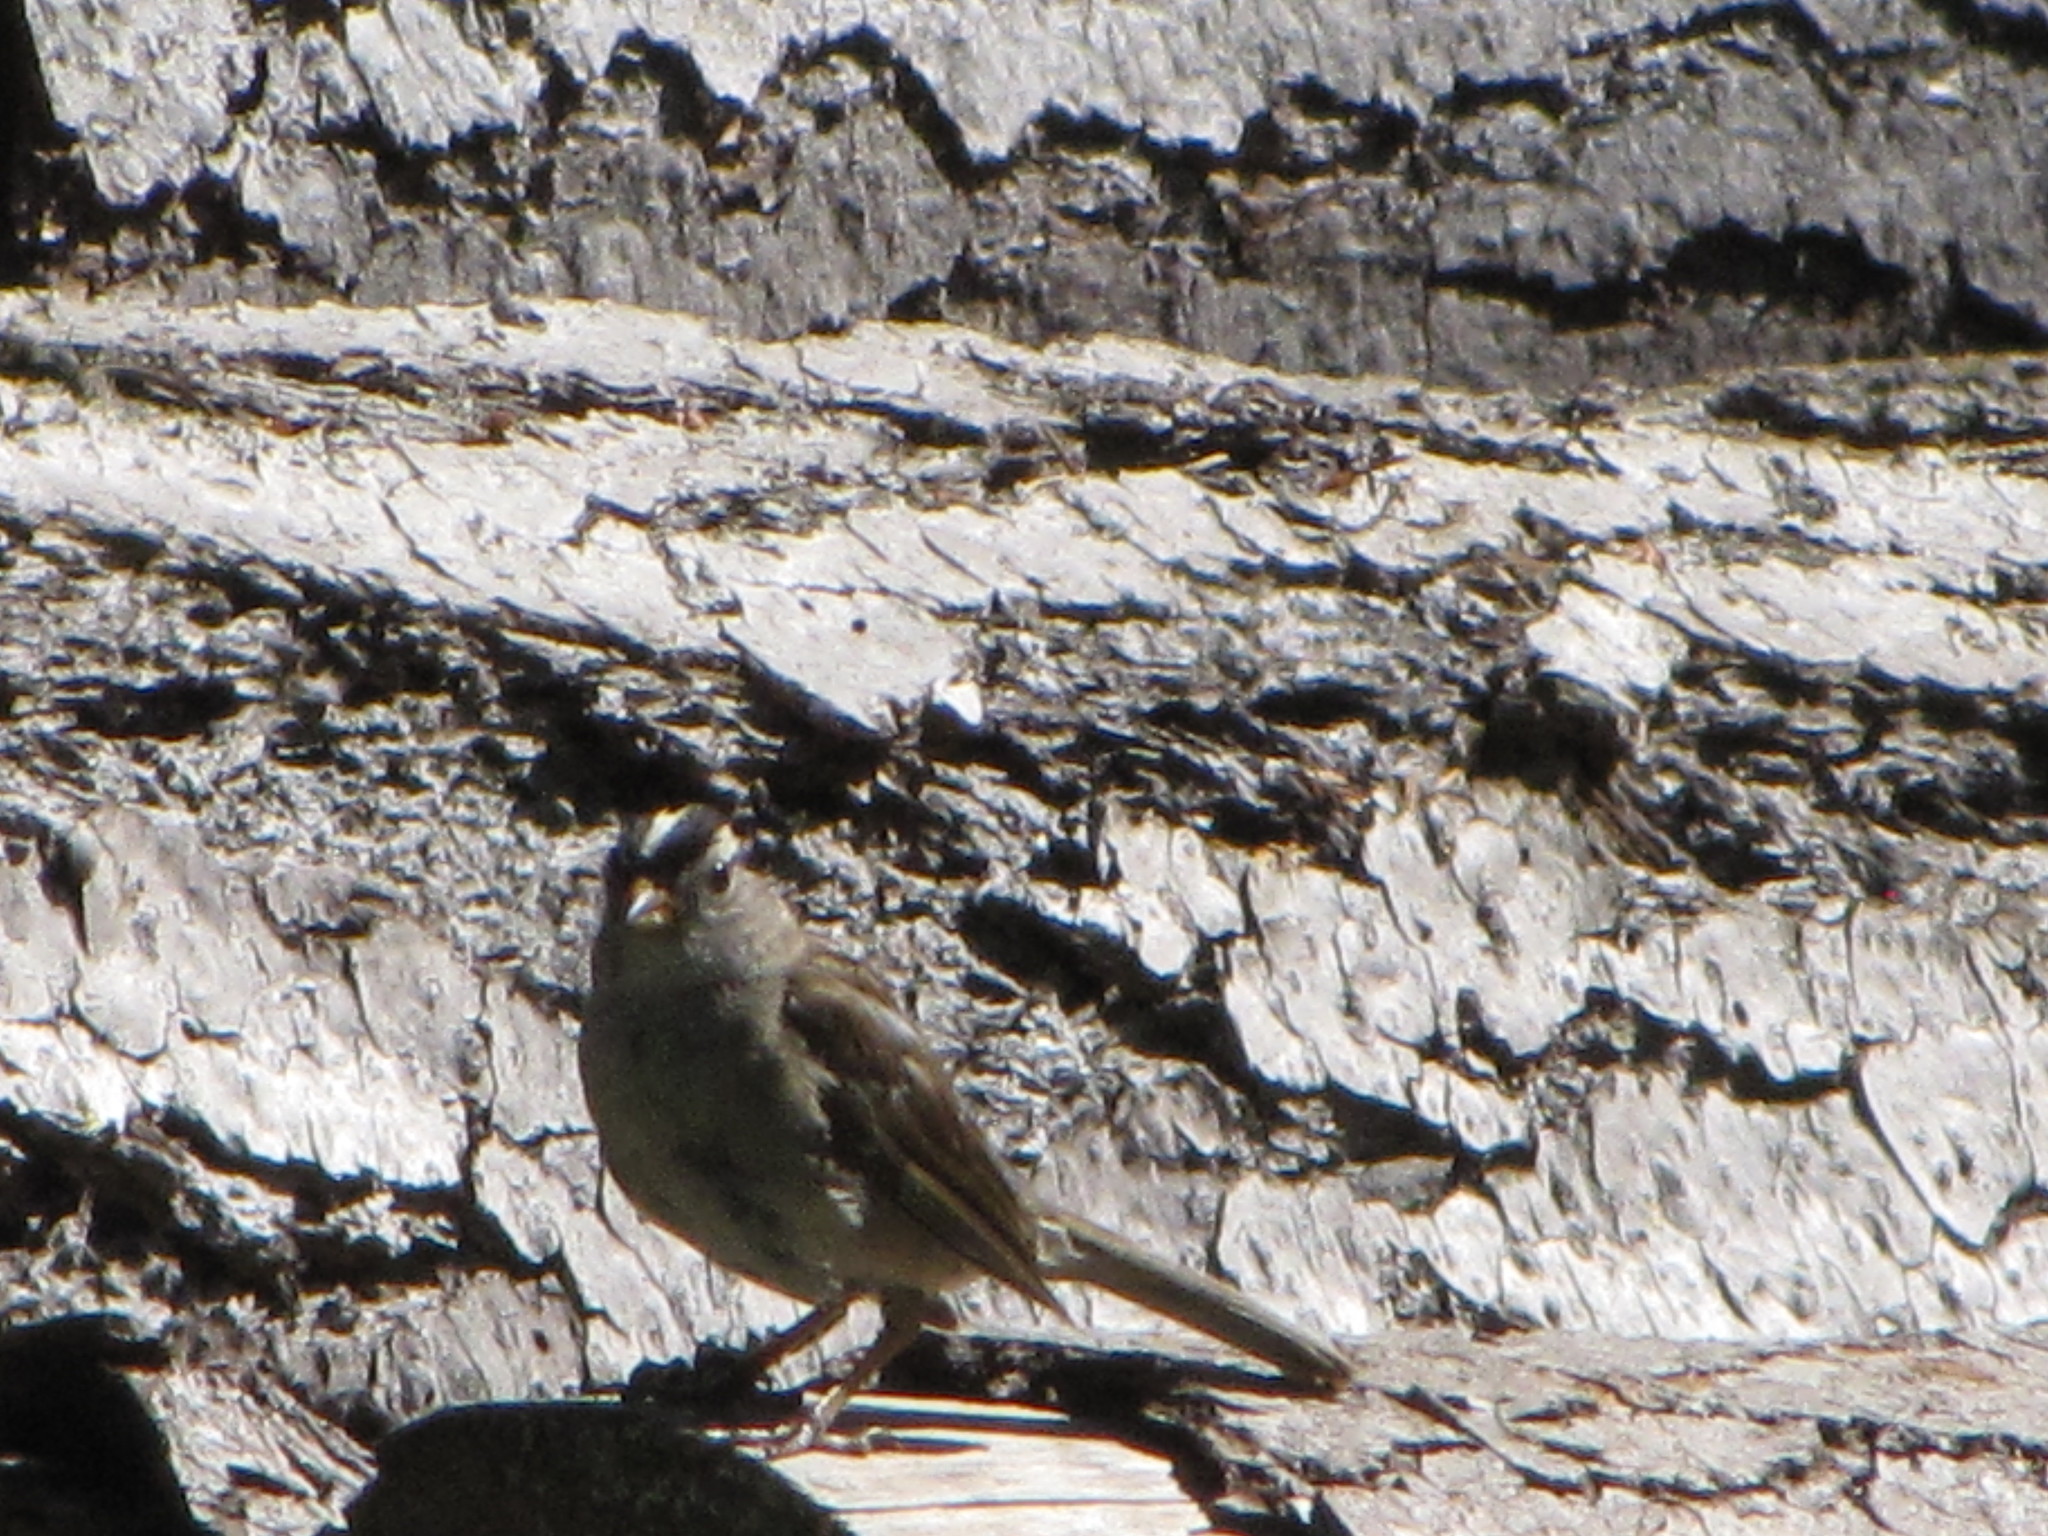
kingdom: Animalia
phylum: Chordata
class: Aves
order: Passeriformes
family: Passerellidae
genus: Zonotrichia
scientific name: Zonotrichia leucophrys
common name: White-crowned sparrow
